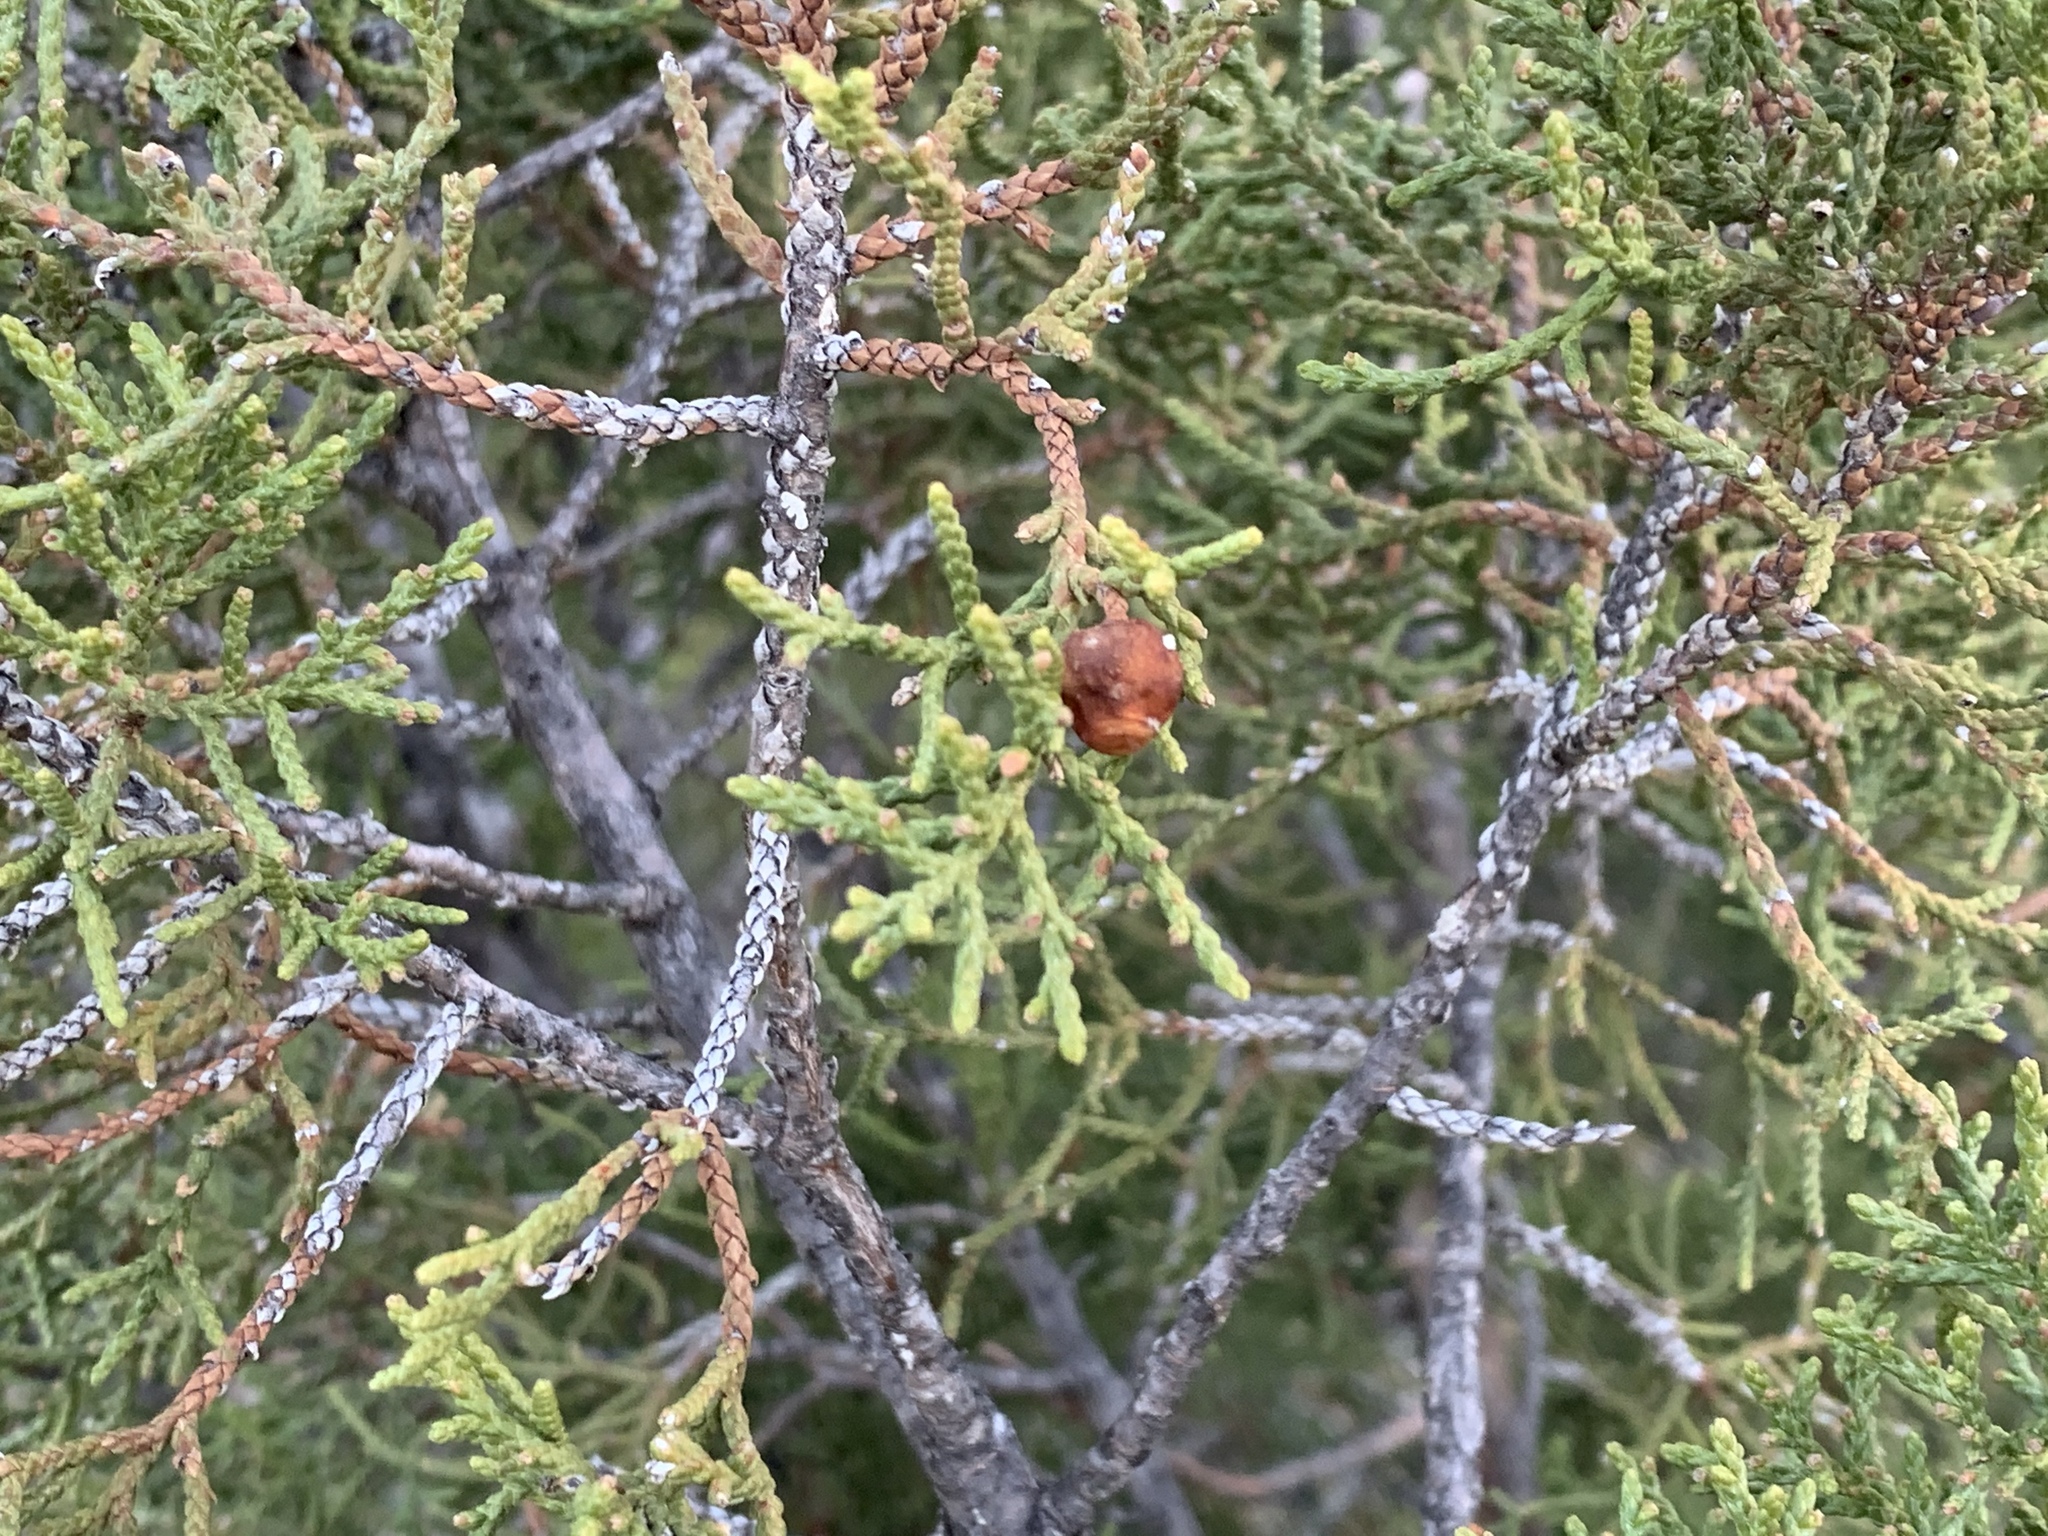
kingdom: Plantae
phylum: Tracheophyta
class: Pinopsida
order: Pinales
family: Cupressaceae
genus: Juniperus
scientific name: Juniperus pinchotii
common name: Pinchot juniper
